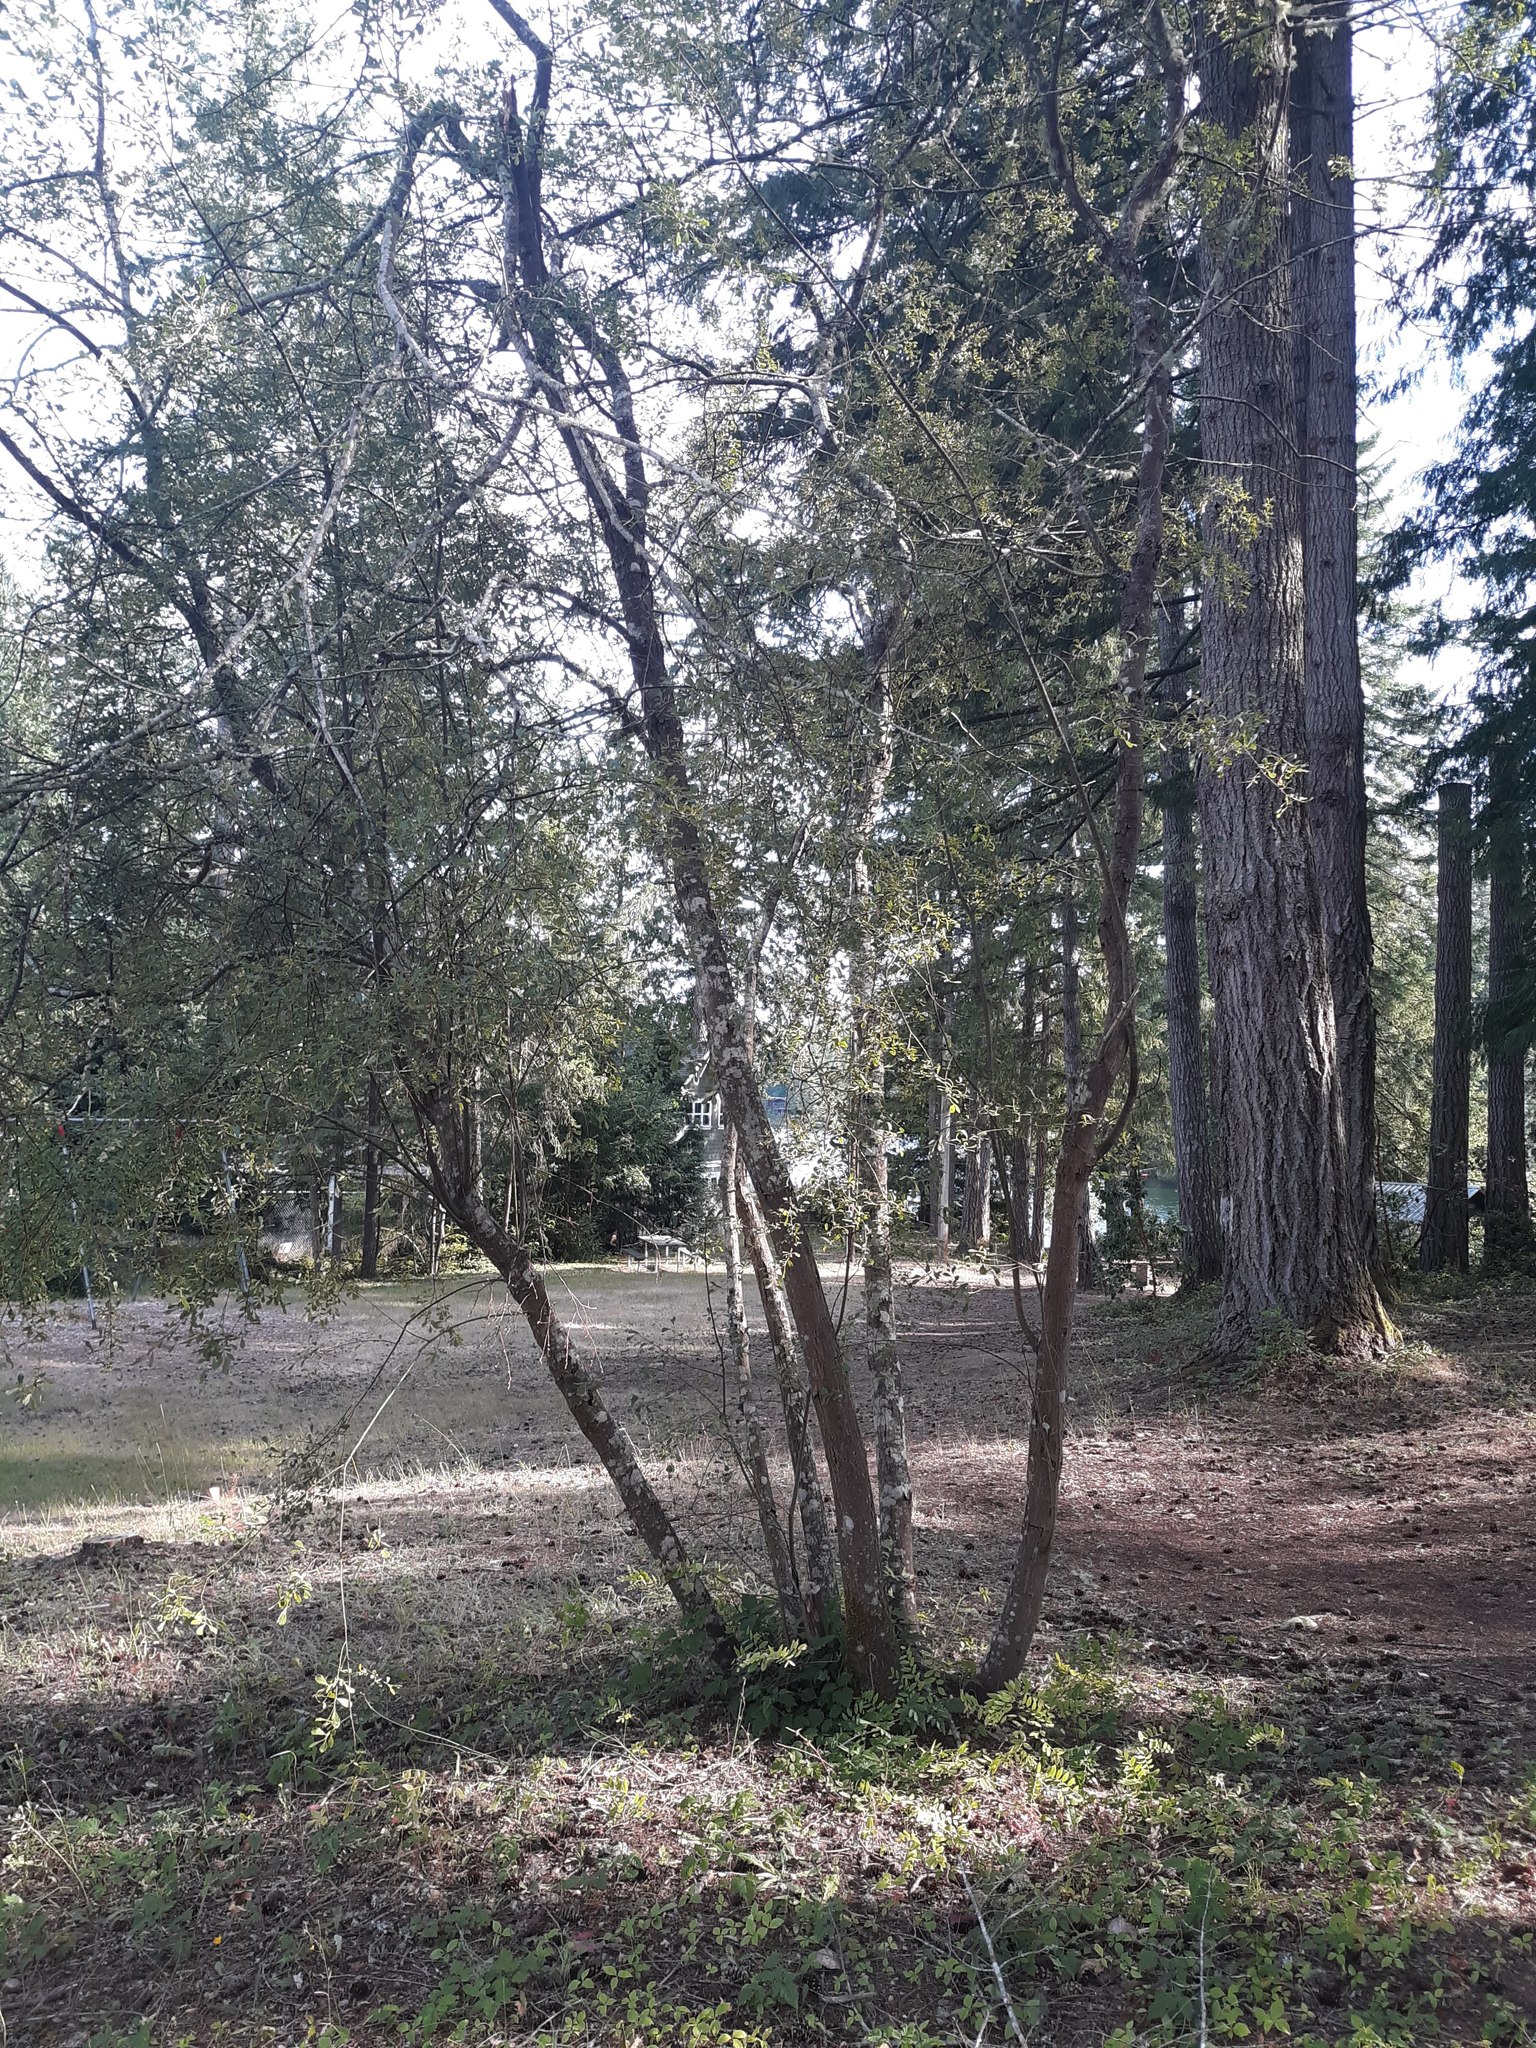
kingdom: Plantae
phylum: Tracheophyta
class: Magnoliopsida
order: Malpighiales
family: Salicaceae
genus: Salix
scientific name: Salix scouleriana
